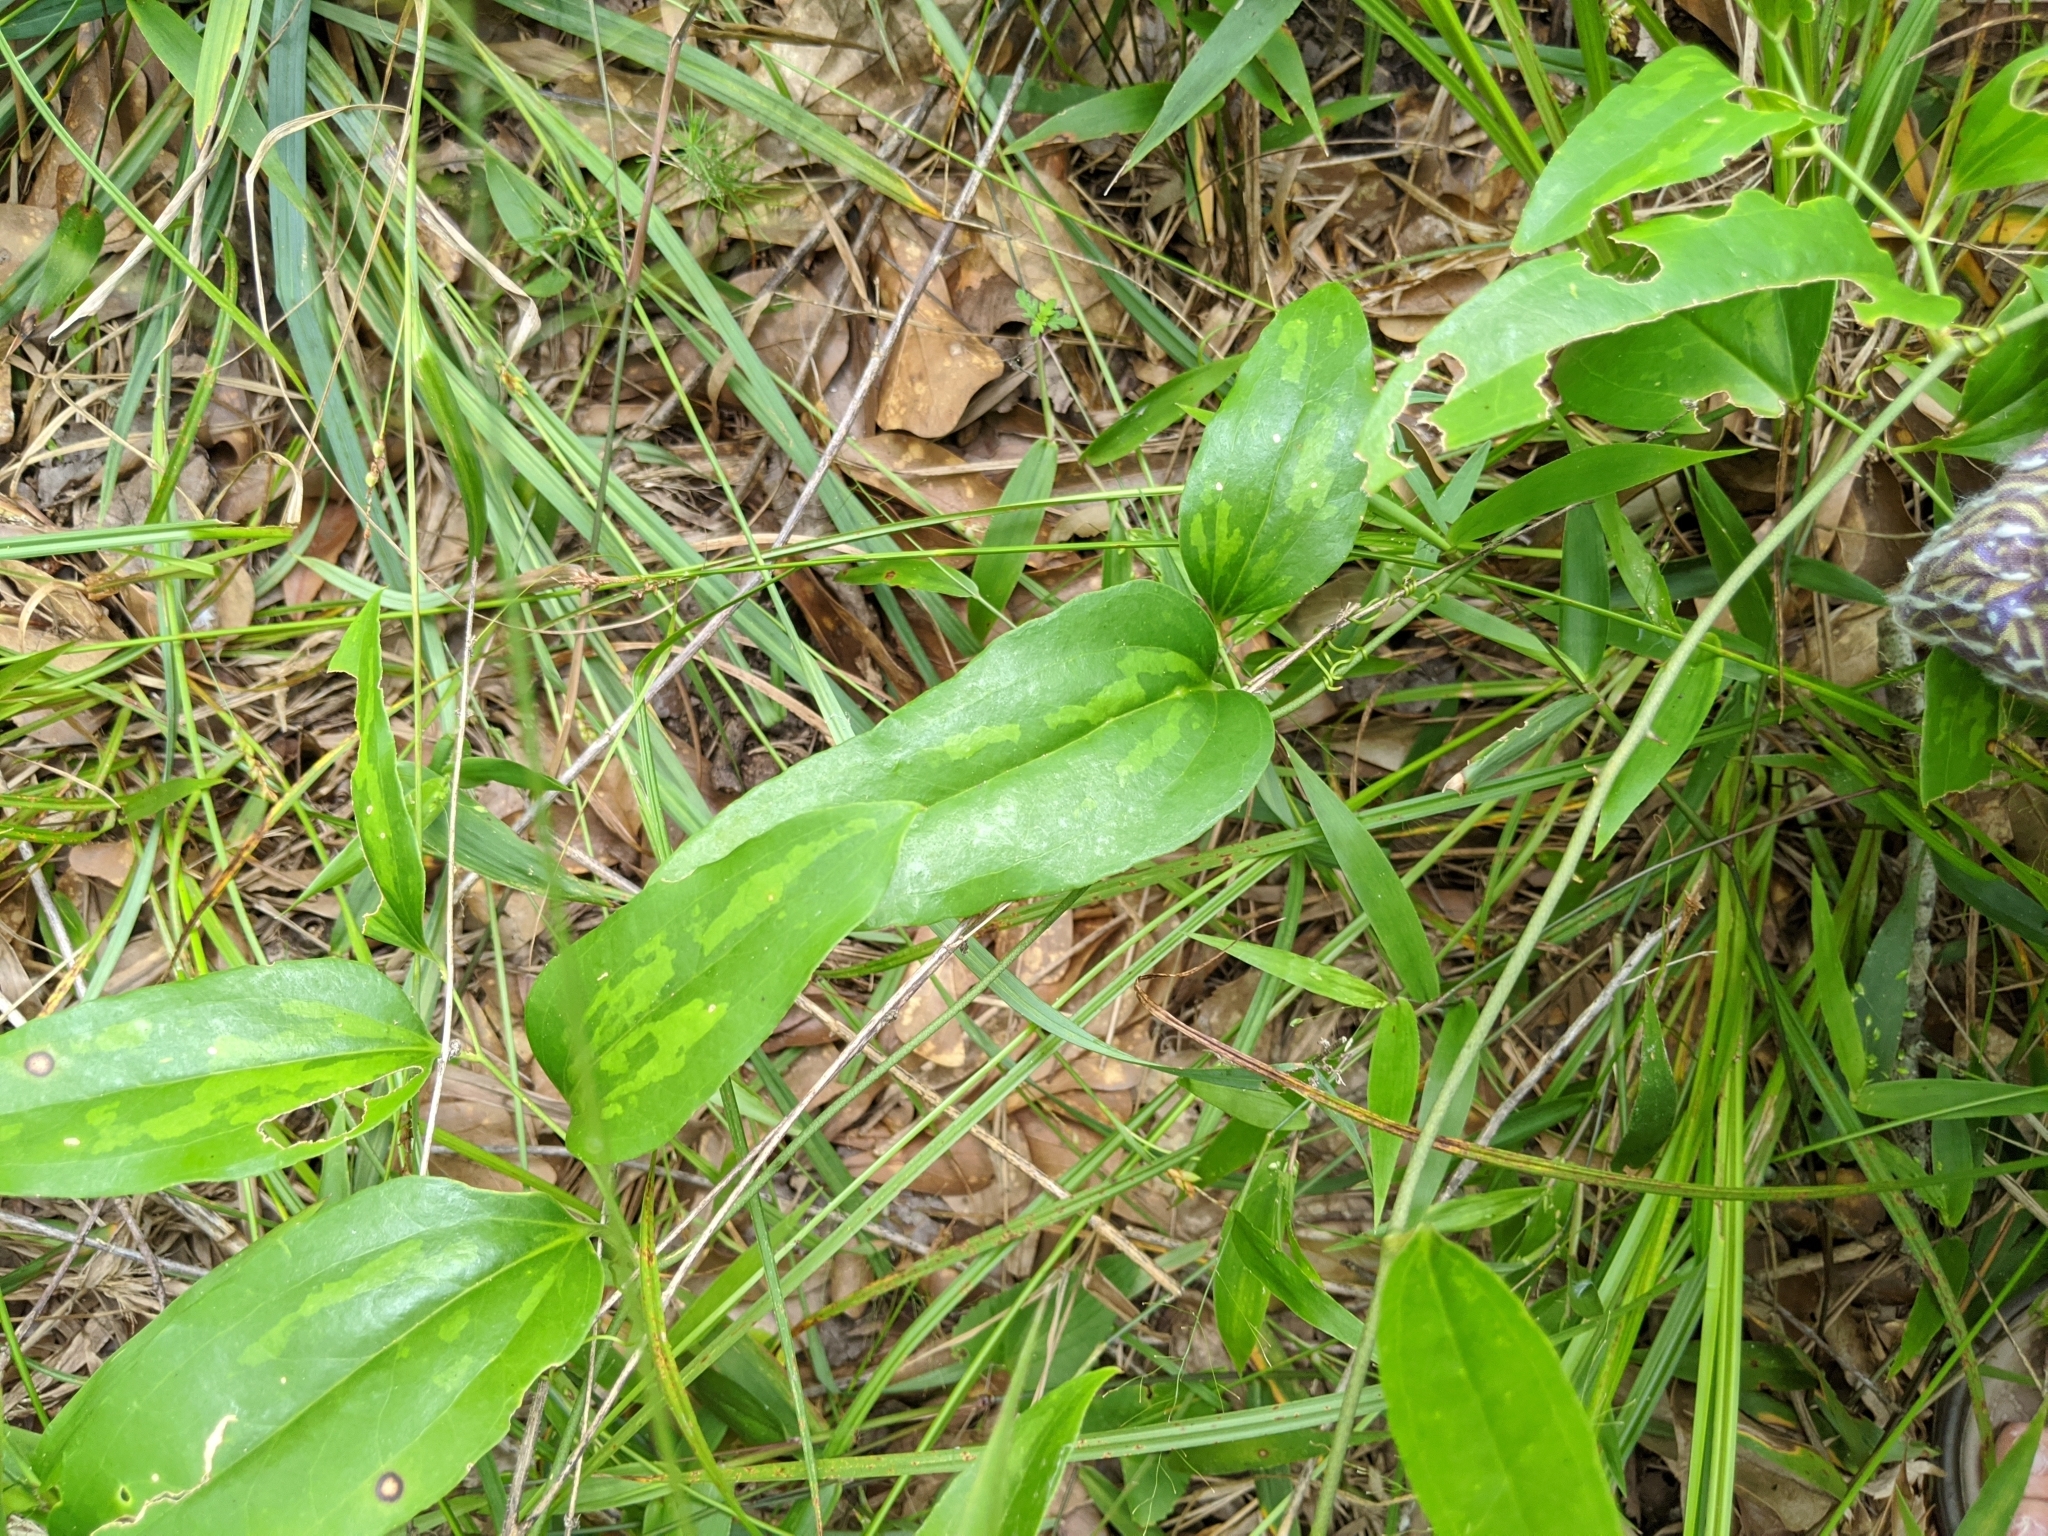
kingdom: Plantae
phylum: Tracheophyta
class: Liliopsida
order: Liliales
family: Smilacaceae
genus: Smilax
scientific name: Smilax maritima
